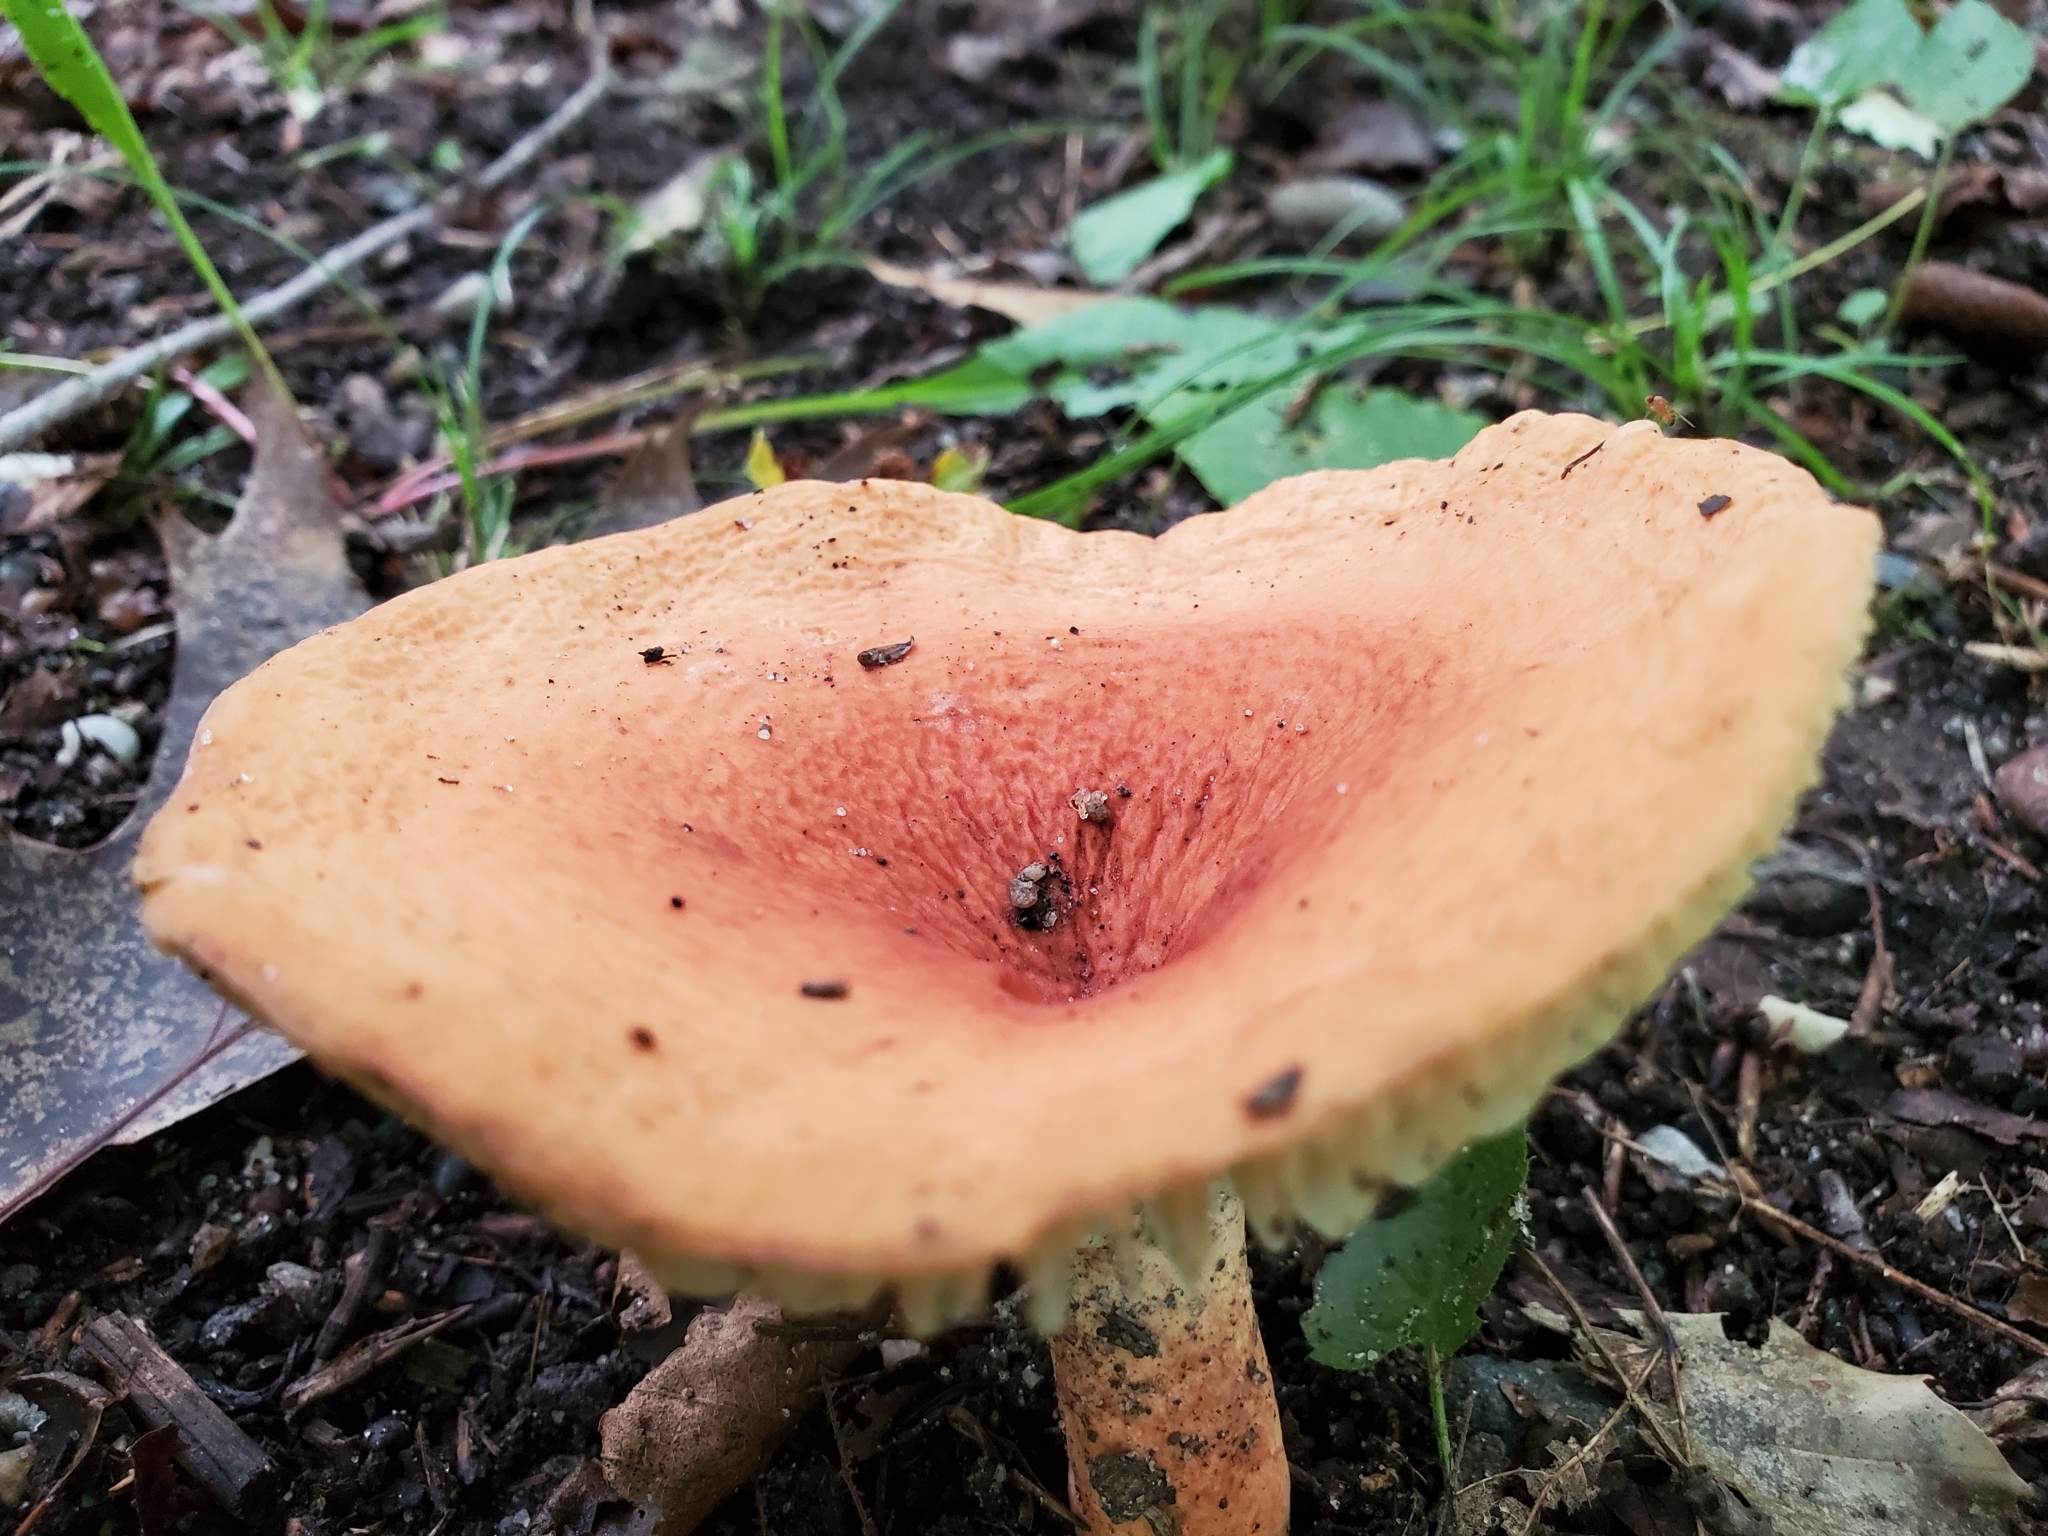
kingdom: Fungi
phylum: Basidiomycota
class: Agaricomycetes
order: Russulales
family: Russulaceae
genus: Lactarius
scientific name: Lactarius hygrophoroides
